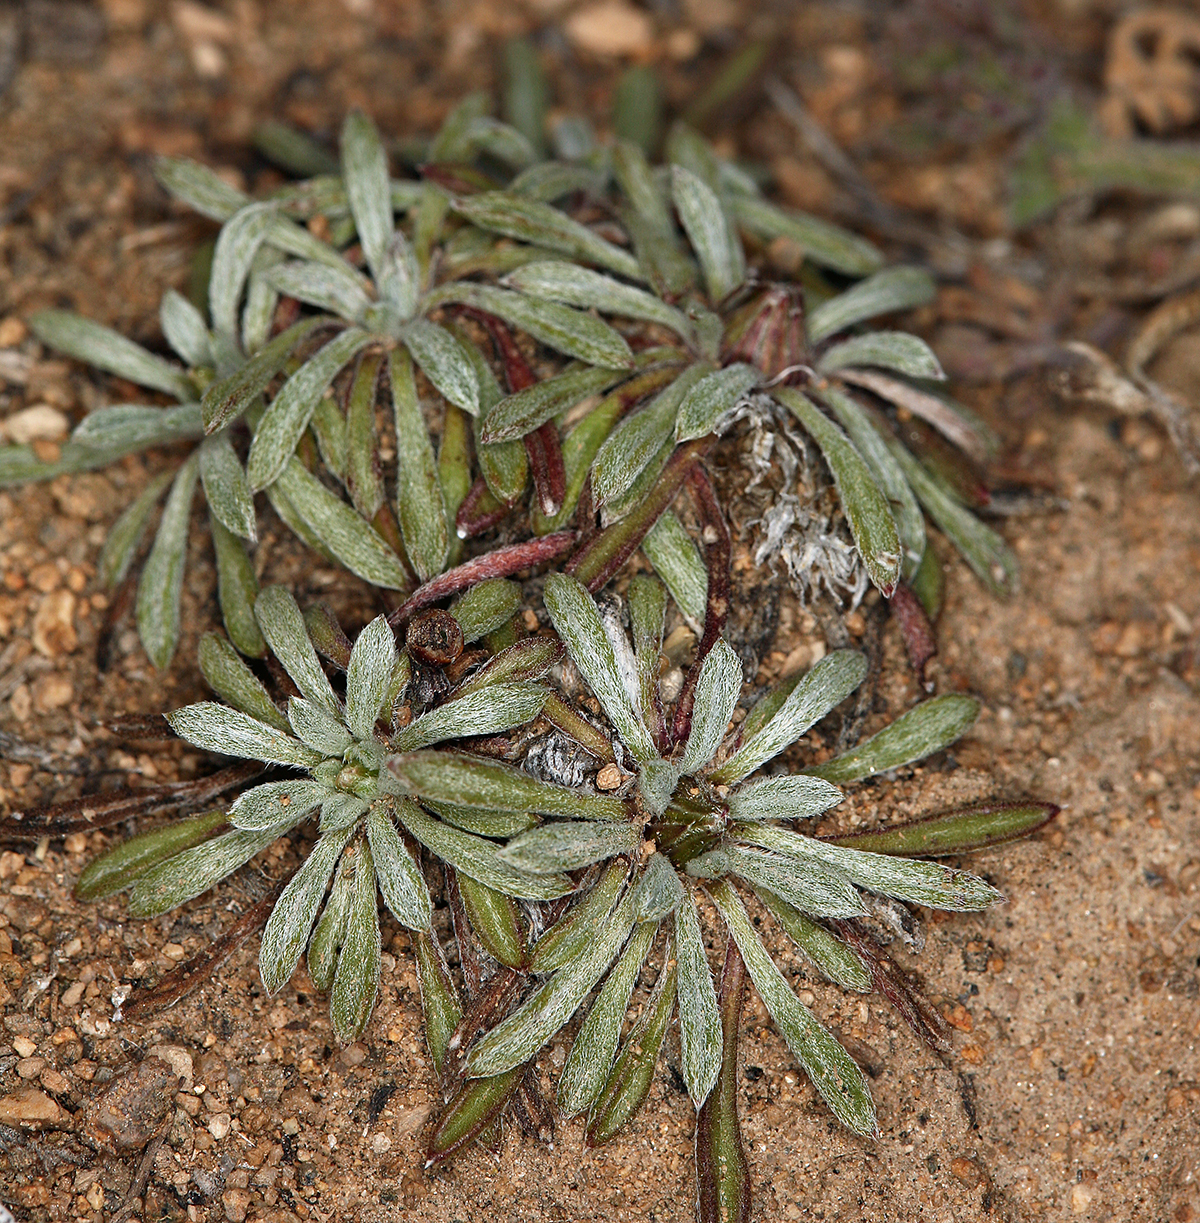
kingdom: Plantae
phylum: Tracheophyta
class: Magnoliopsida
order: Asterales
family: Asteraceae
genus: Townsendia
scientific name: Townsendia leptotes
